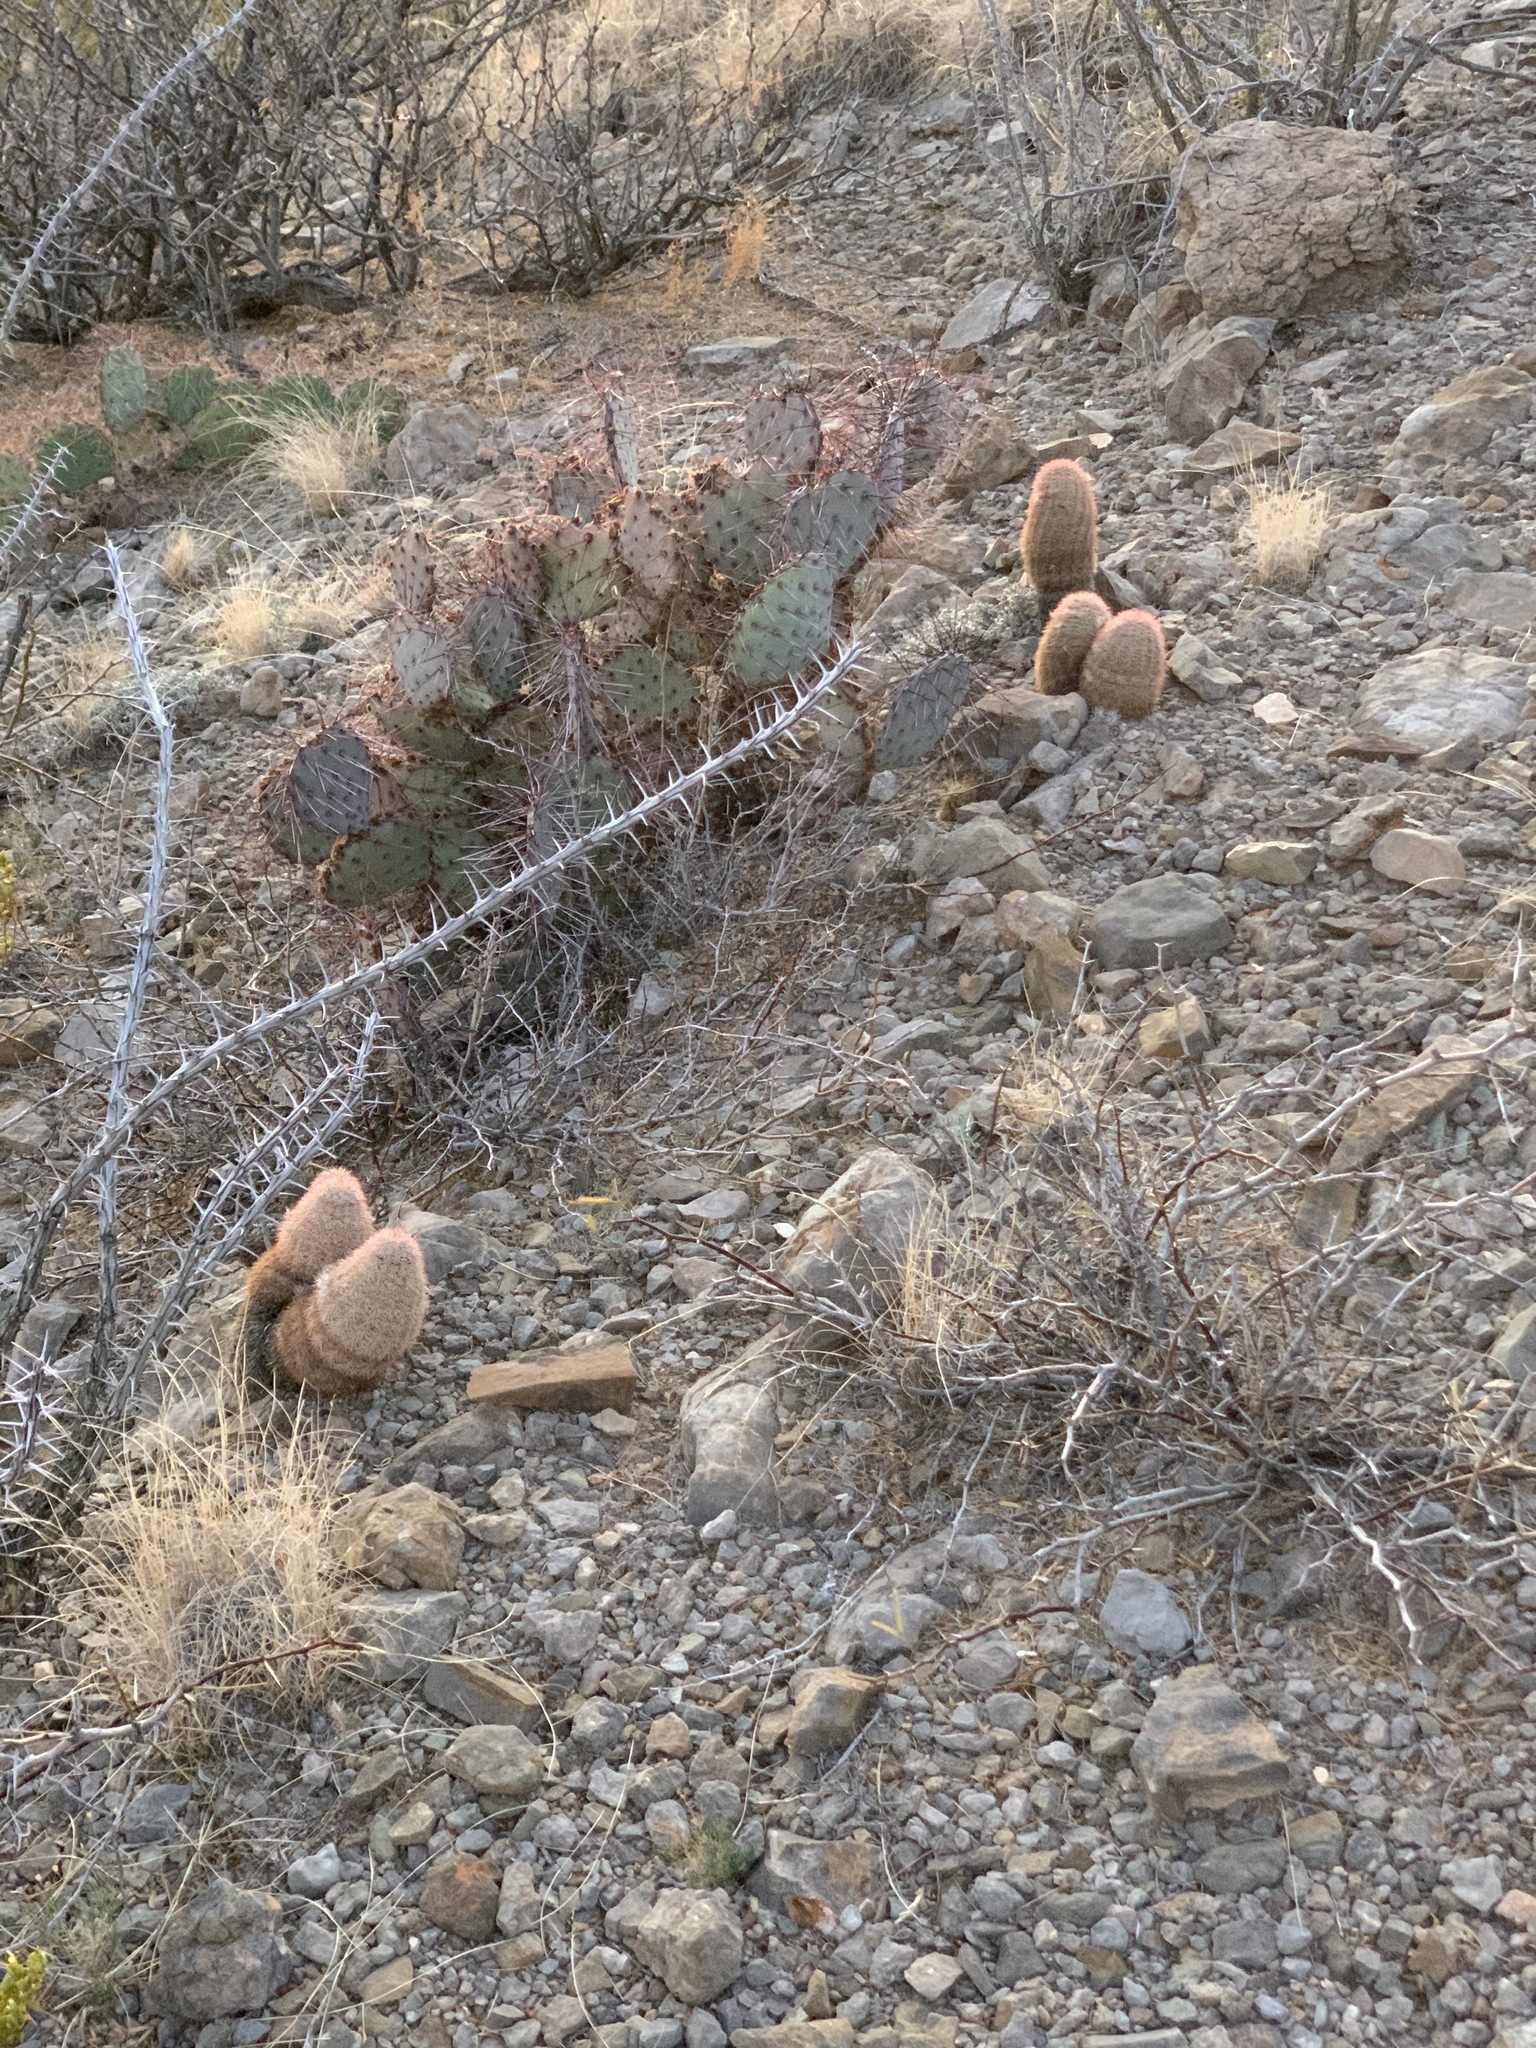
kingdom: Plantae
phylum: Tracheophyta
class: Magnoliopsida
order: Caryophyllales
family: Cactaceae
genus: Echinocereus
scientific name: Echinocereus dasyacanthus
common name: Spiny hedgehog cactus
